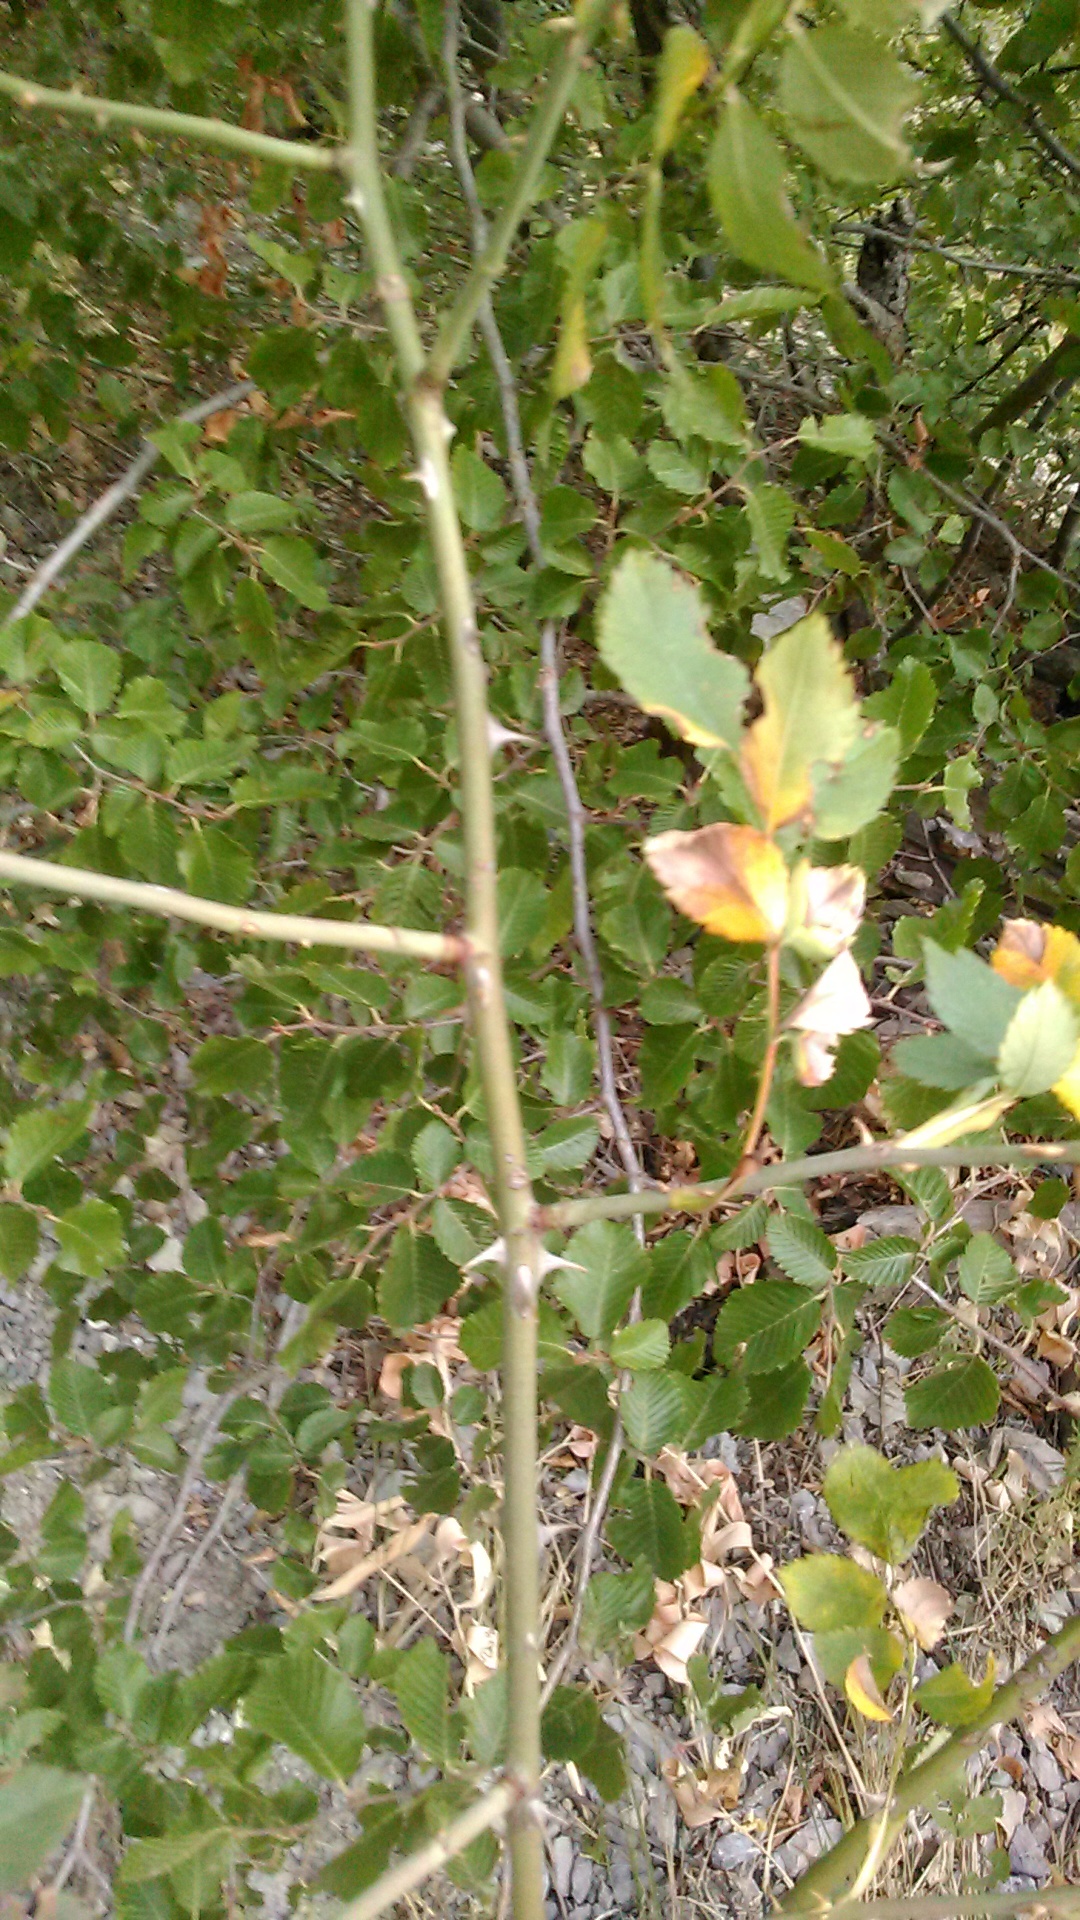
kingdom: Plantae
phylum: Tracheophyta
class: Magnoliopsida
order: Rosales
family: Rosaceae
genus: Rosa
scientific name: Rosa
